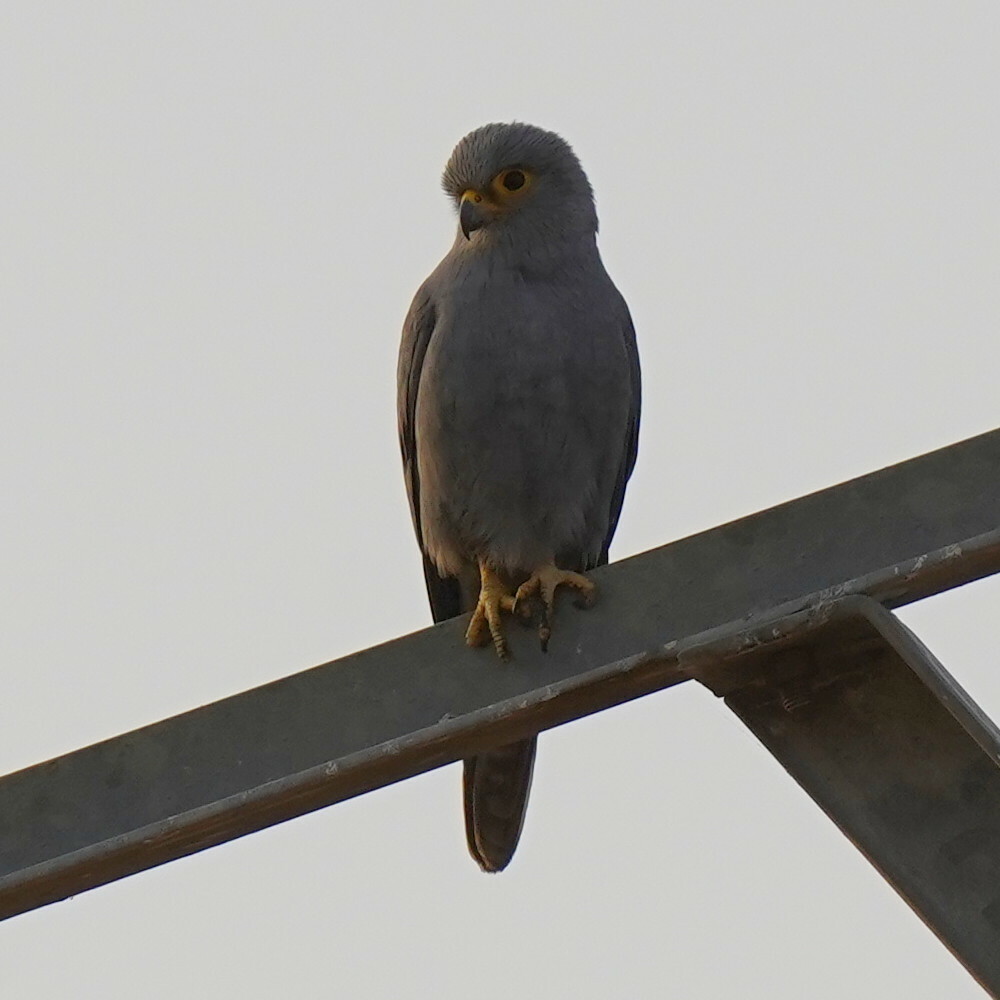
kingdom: Animalia
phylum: Chordata
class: Aves
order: Falconiformes
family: Falconidae
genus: Falco
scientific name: Falco ardosiaceus
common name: Grey kestrel
